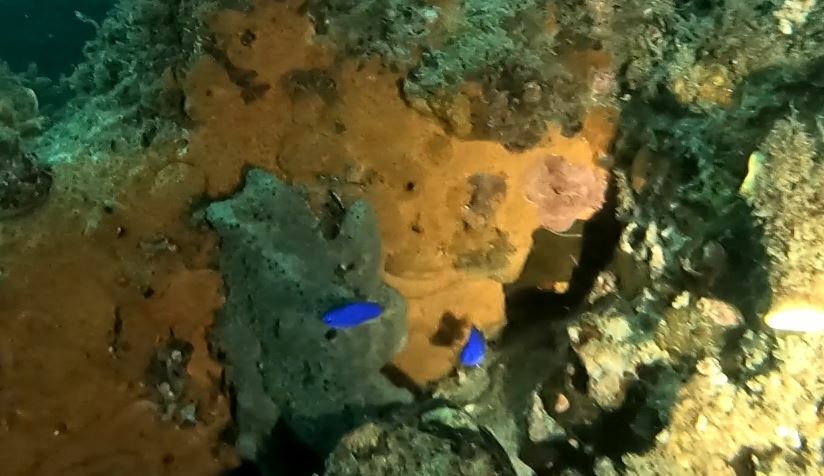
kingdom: Animalia
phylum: Chordata
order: Perciformes
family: Pomacentridae
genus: Pomacentrus
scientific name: Pomacentrus coelestis
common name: Neon damsel
